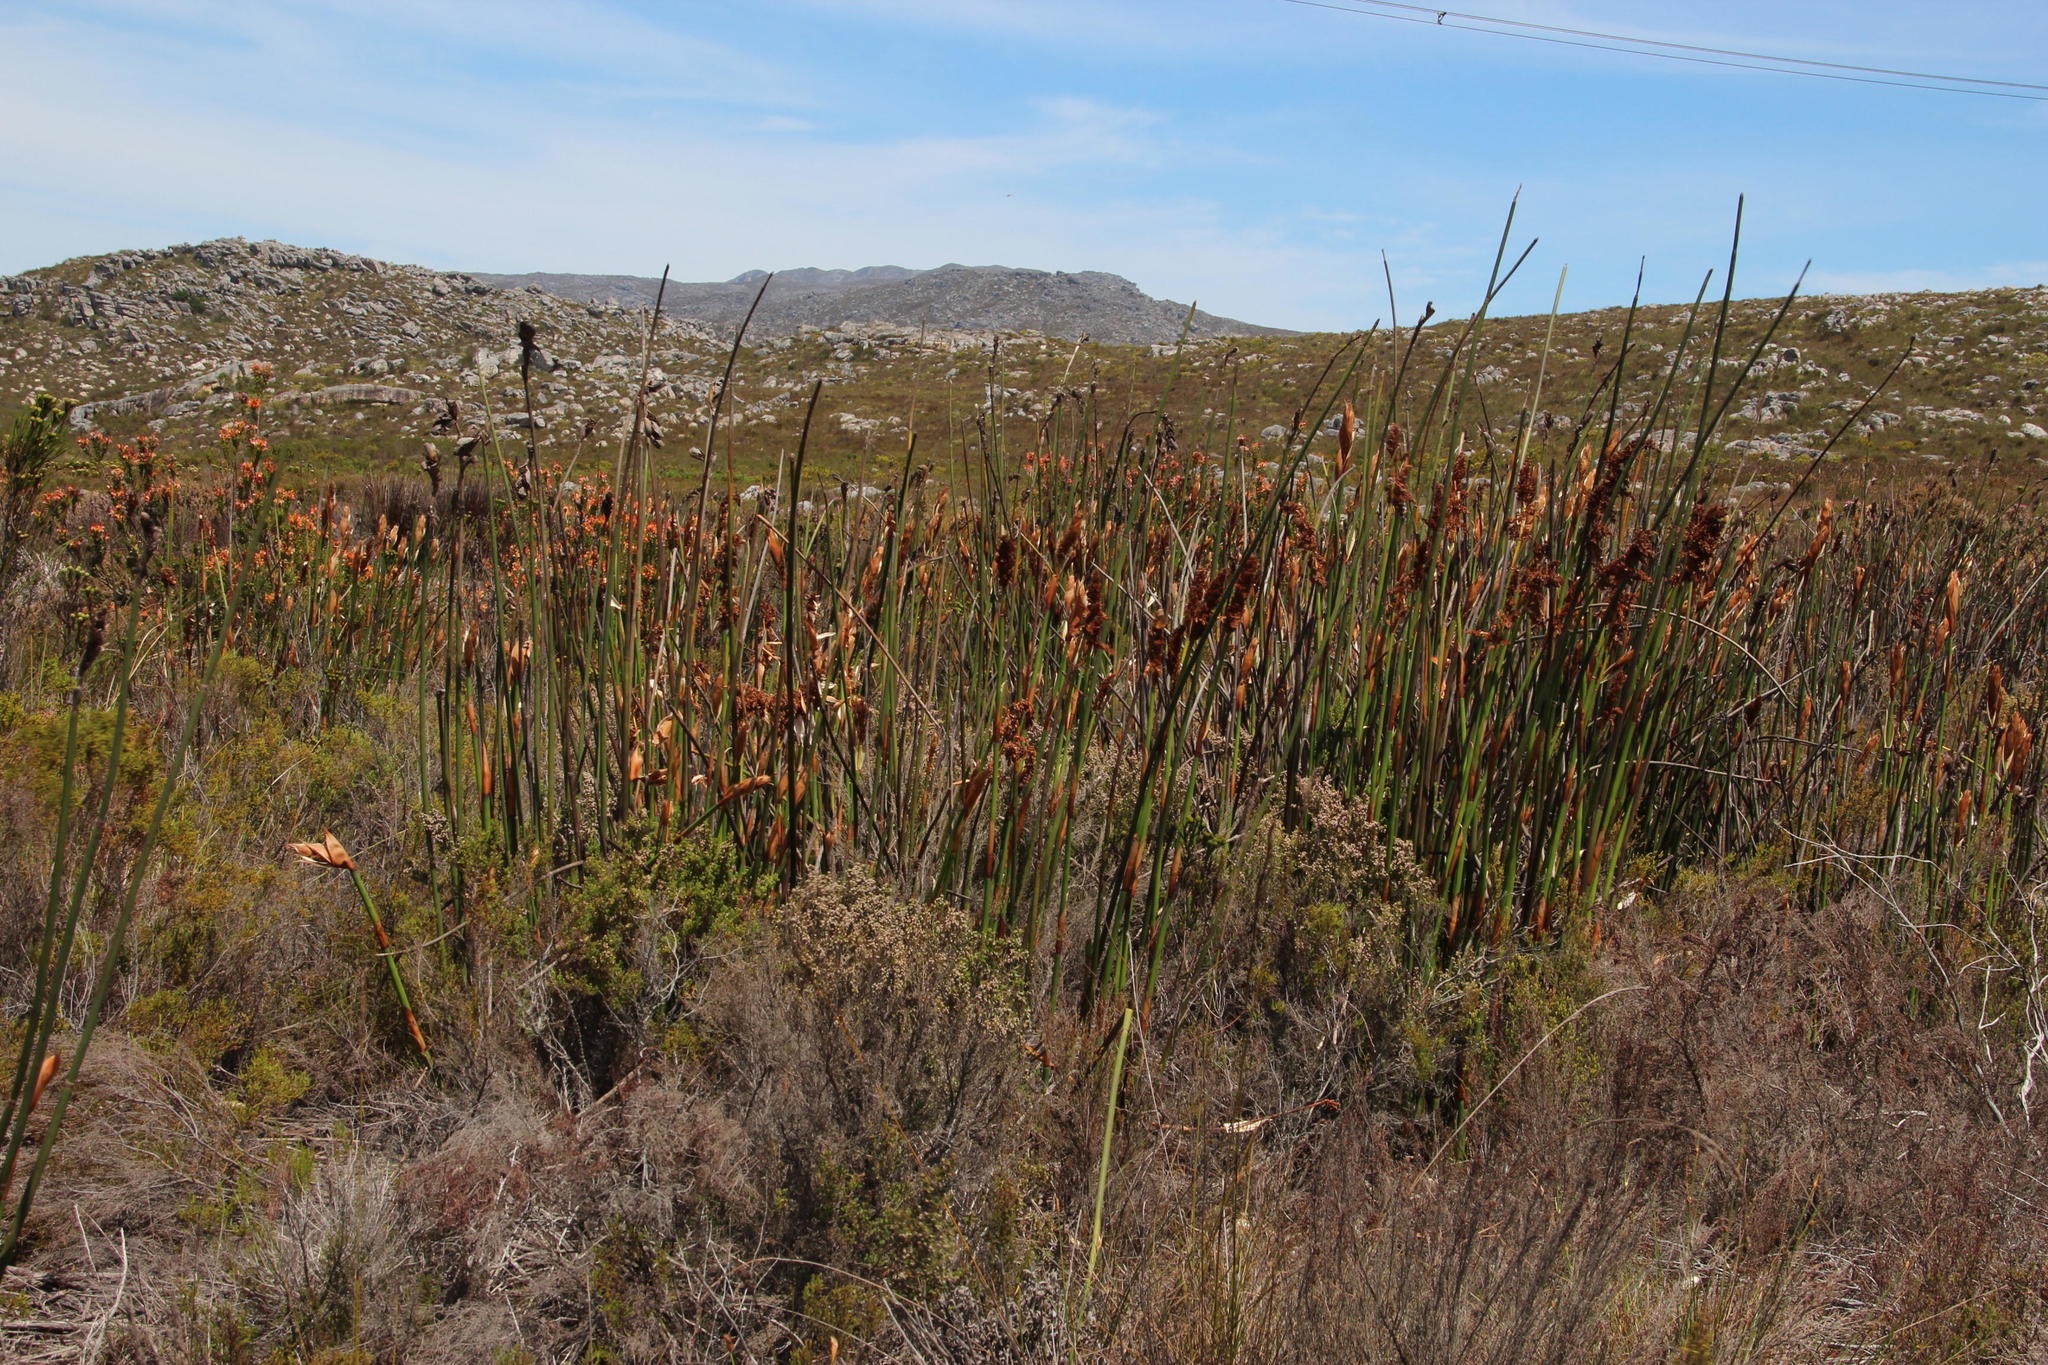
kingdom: Plantae
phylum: Tracheophyta
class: Liliopsida
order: Poales
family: Restionaceae
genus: Elegia
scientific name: Elegia mucronata
